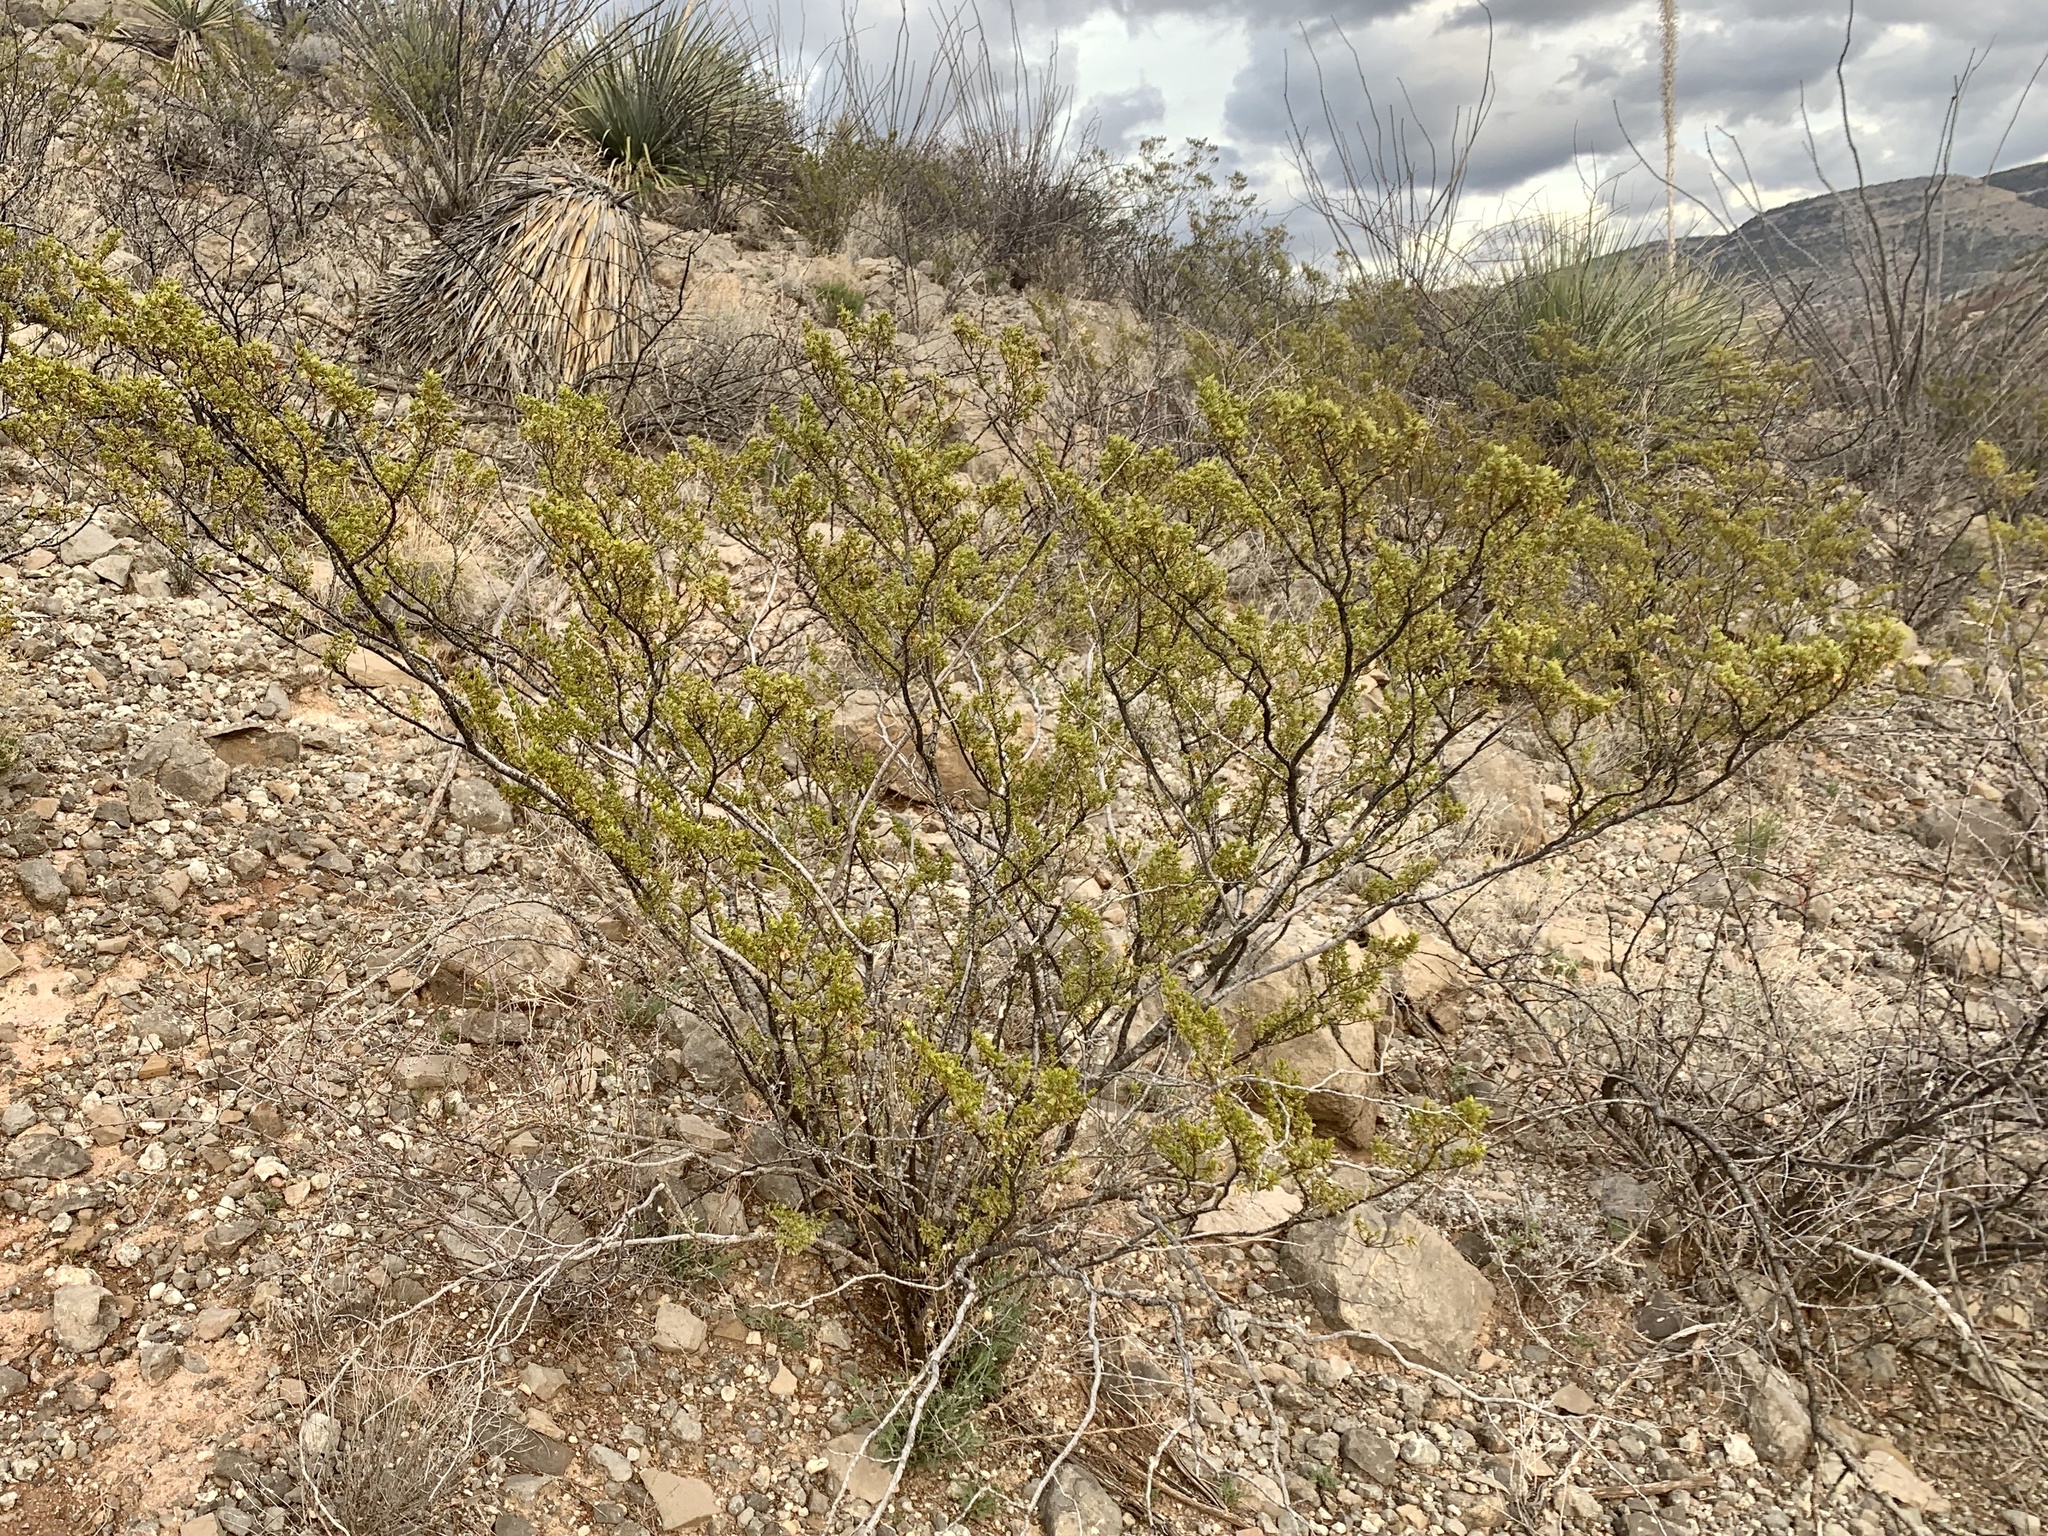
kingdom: Plantae
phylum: Tracheophyta
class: Magnoliopsida
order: Zygophyllales
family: Zygophyllaceae
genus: Larrea
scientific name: Larrea tridentata
